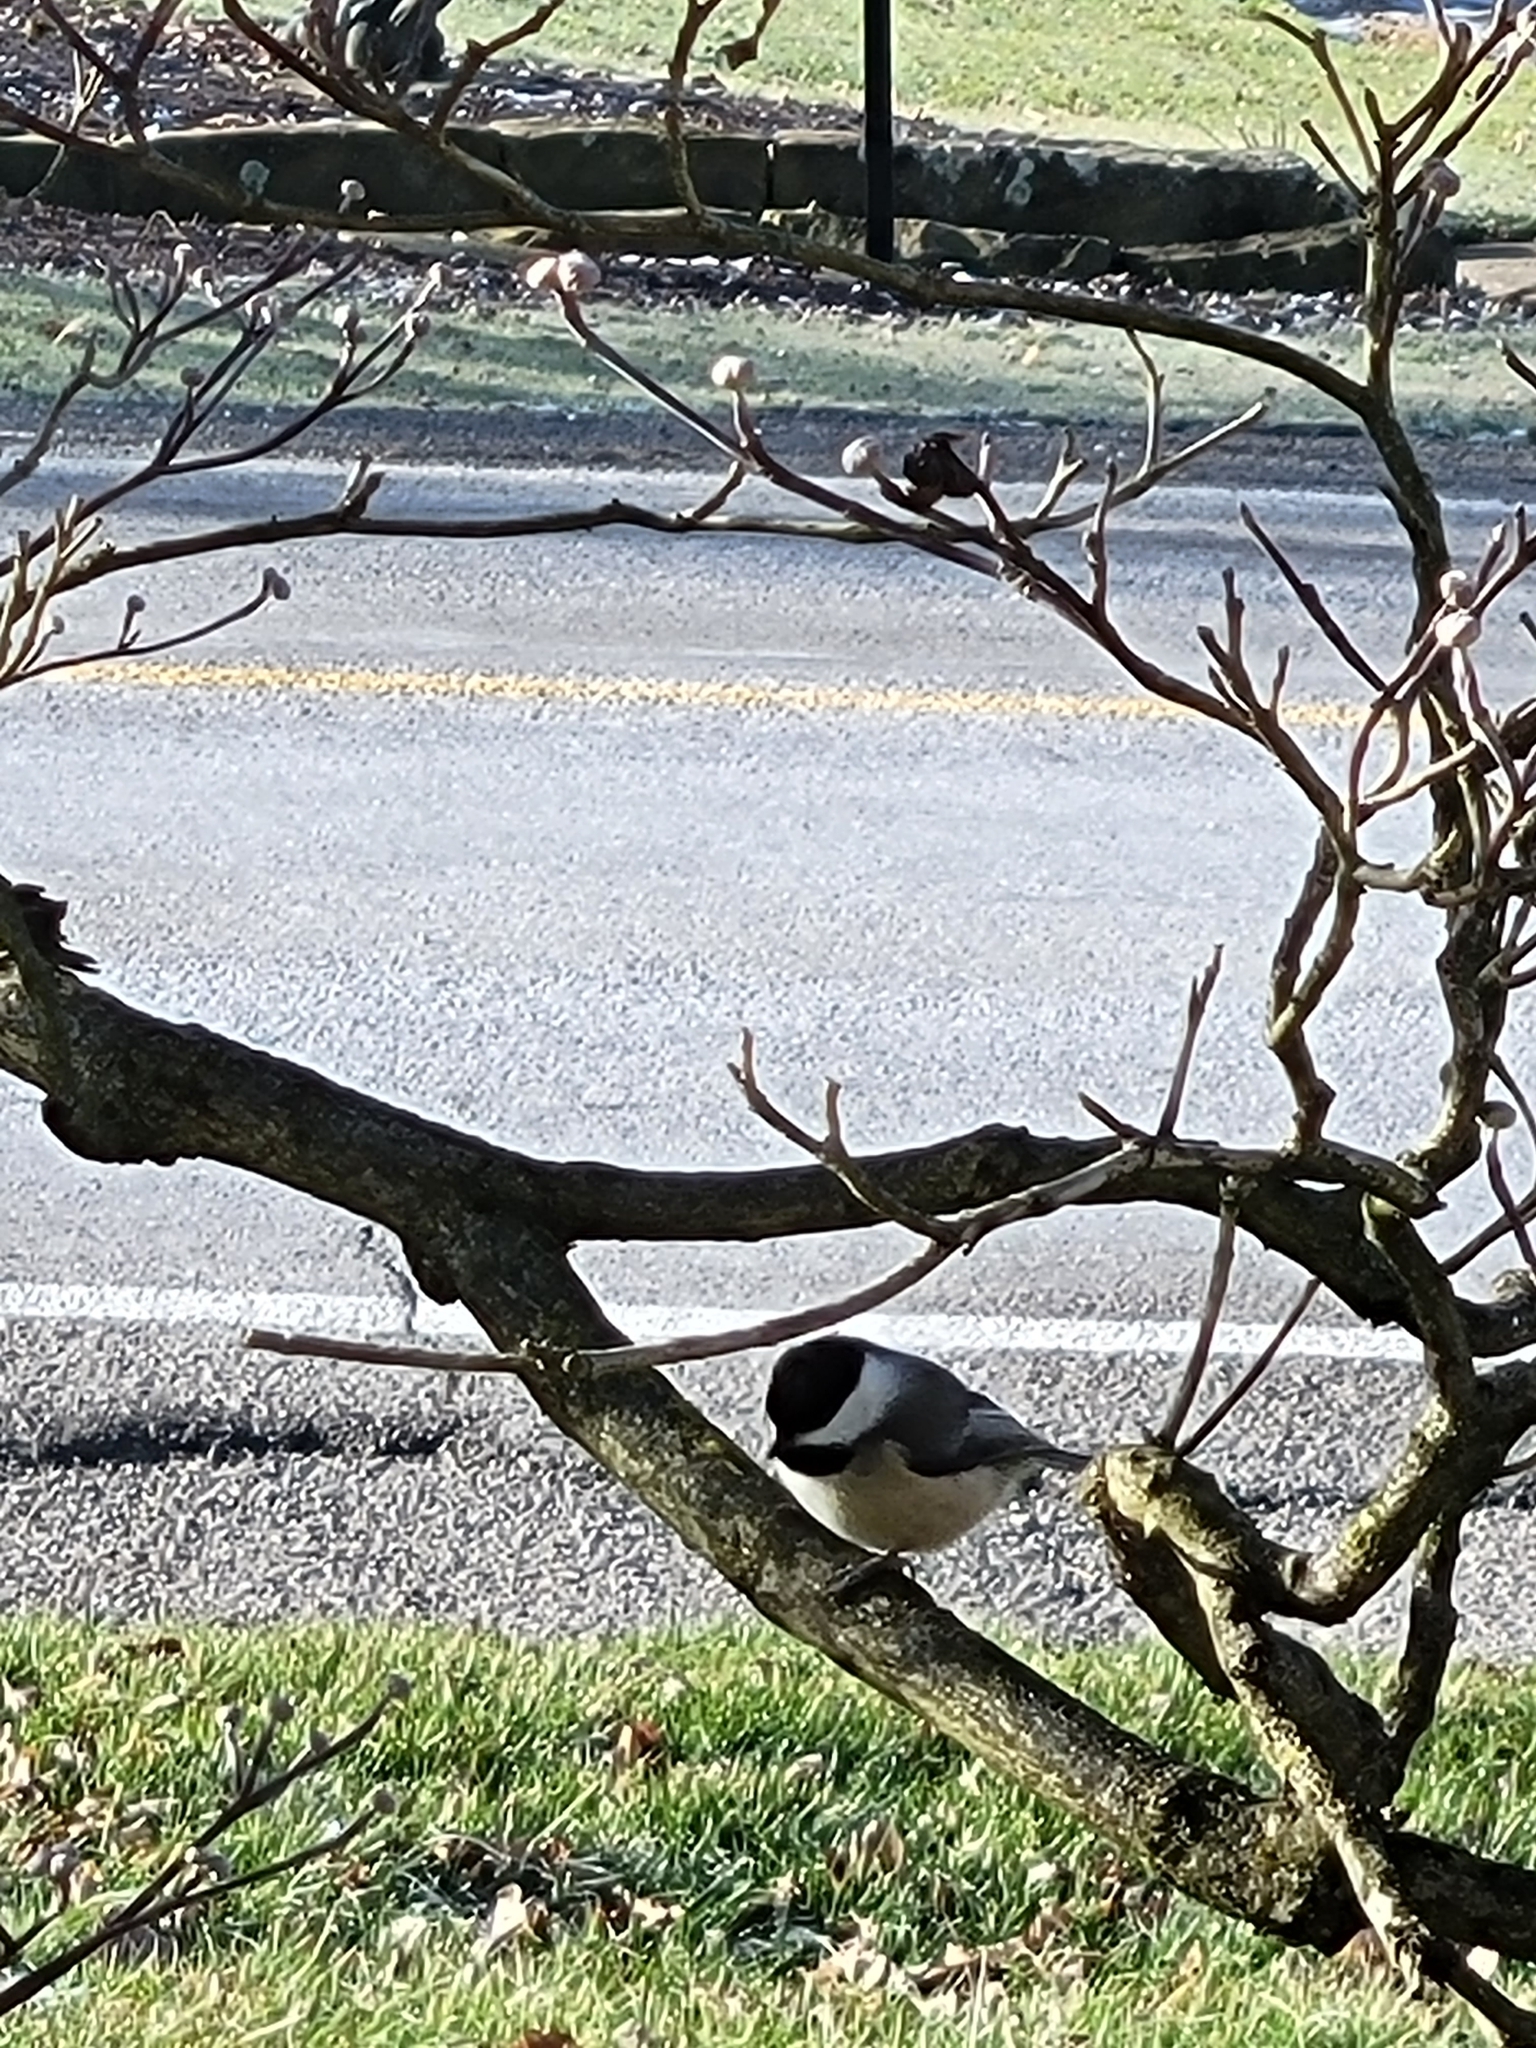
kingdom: Animalia
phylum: Chordata
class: Aves
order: Passeriformes
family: Paridae
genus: Poecile
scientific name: Poecile atricapillus
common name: Black-capped chickadee
